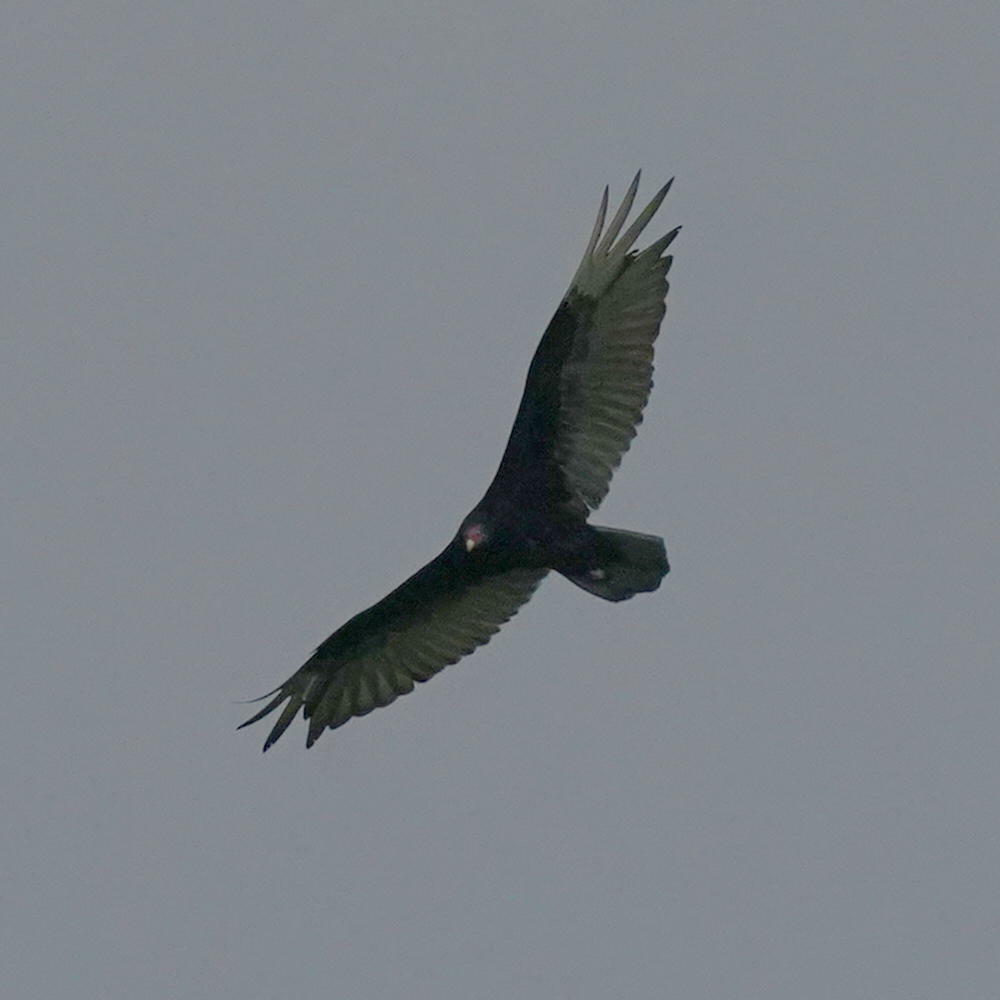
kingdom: Animalia
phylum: Chordata
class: Aves
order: Accipitriformes
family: Cathartidae
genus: Cathartes
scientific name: Cathartes aura
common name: Turkey vulture
